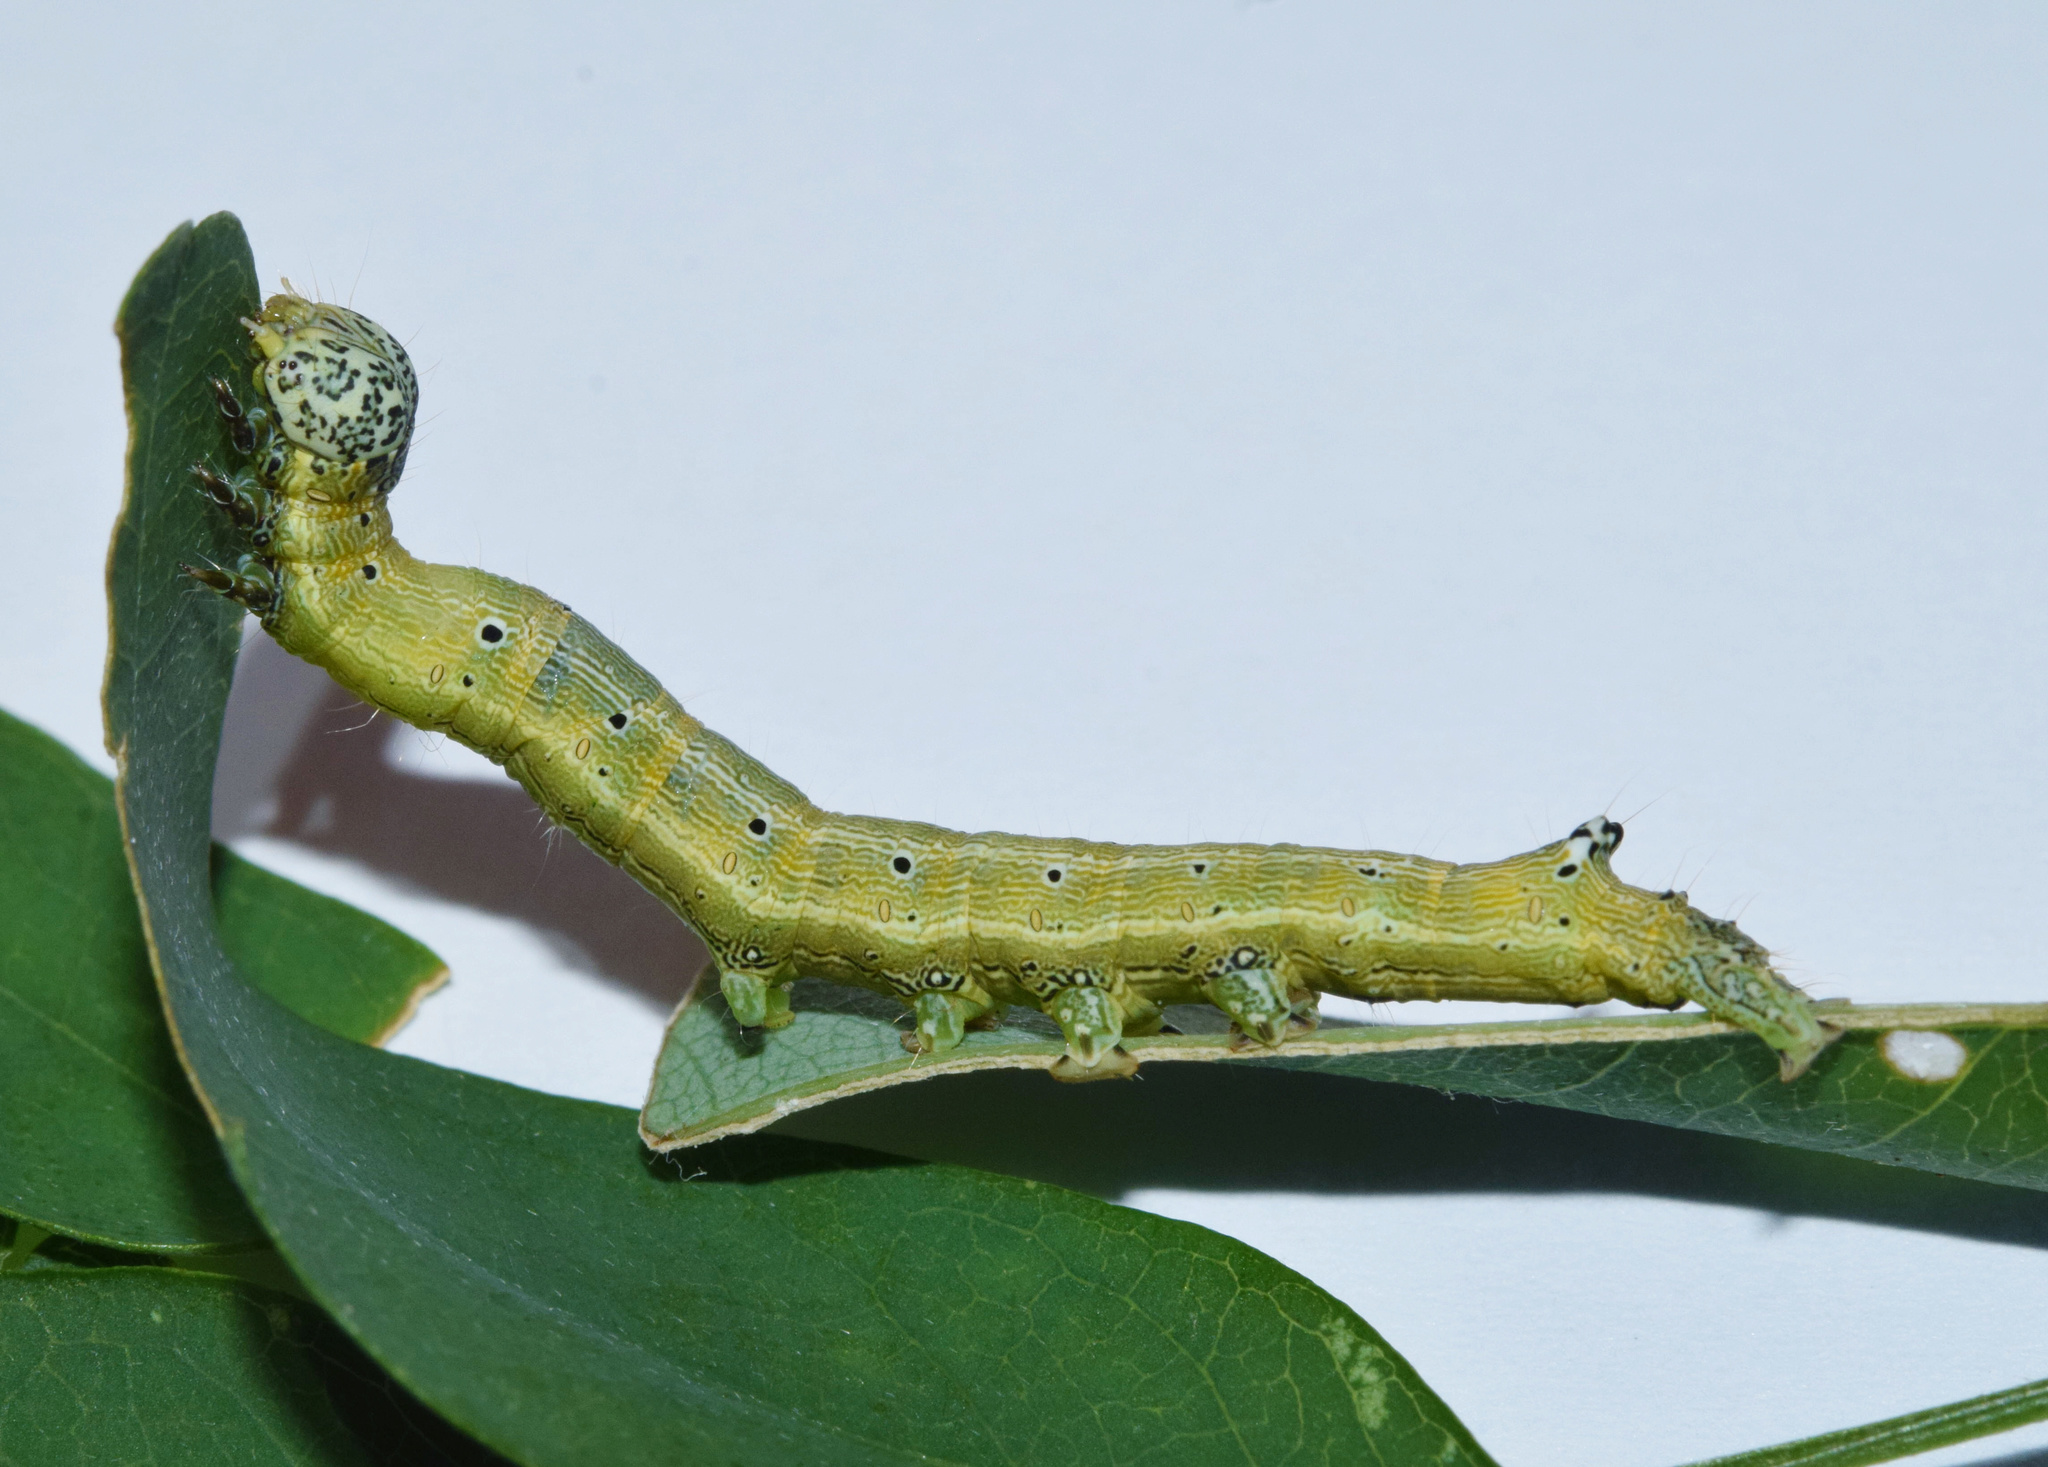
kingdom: Animalia
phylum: Arthropoda
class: Insecta
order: Lepidoptera
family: Erebidae
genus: Achaea
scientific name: Achaea indeterminata
